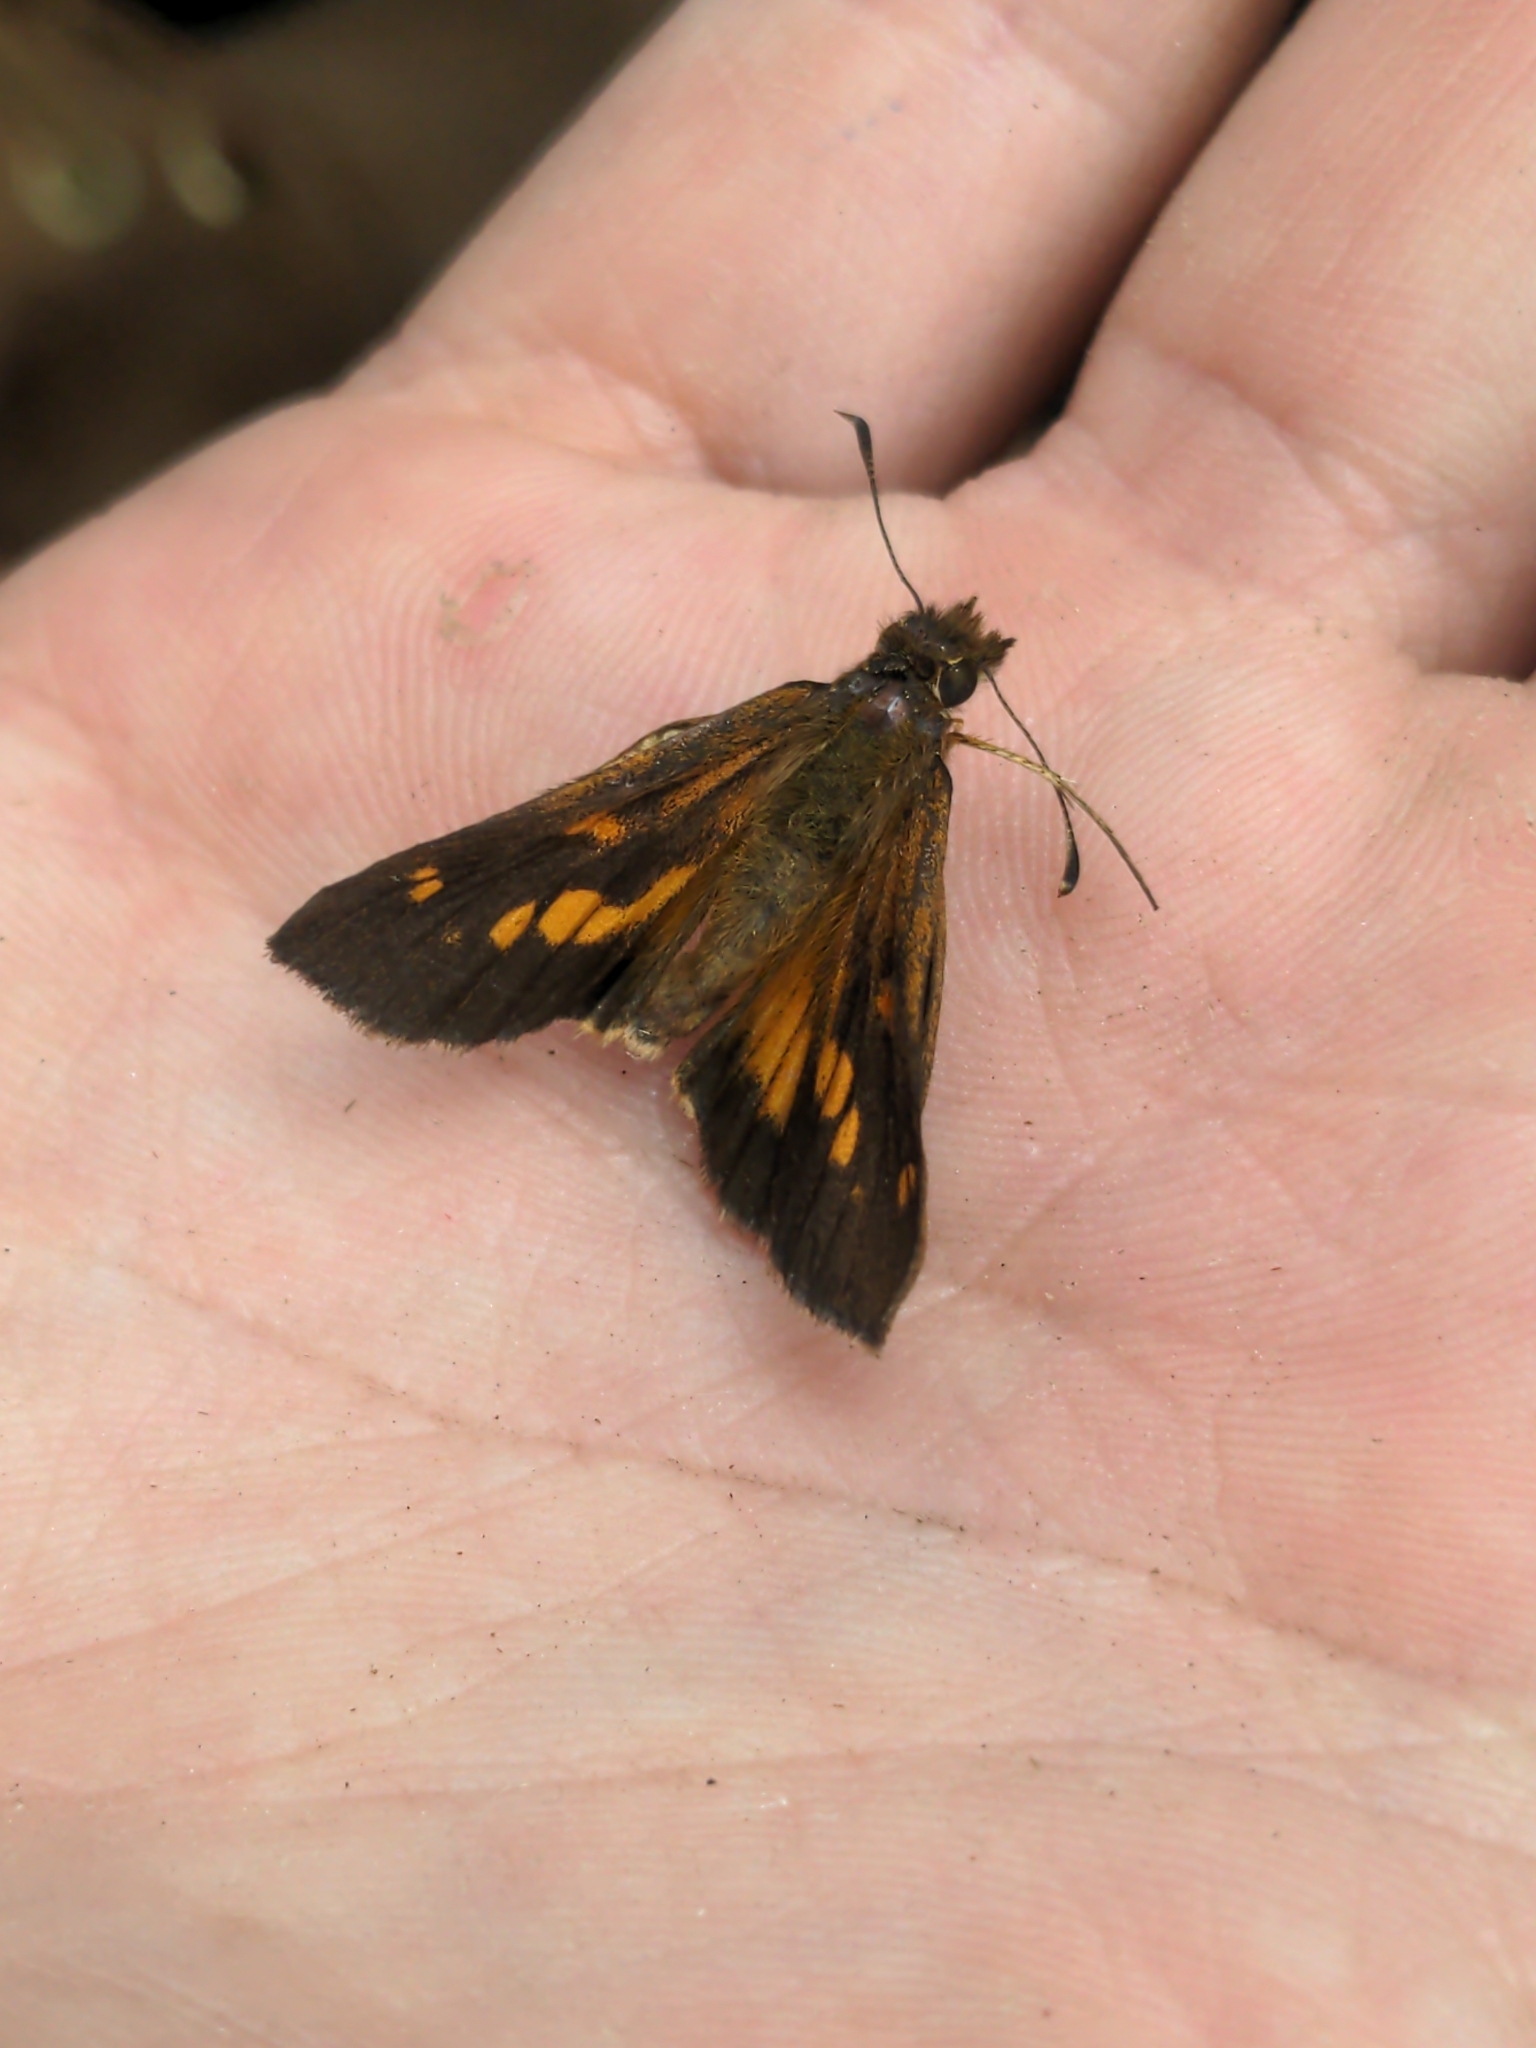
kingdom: Animalia
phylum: Arthropoda
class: Insecta
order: Lepidoptera
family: Hesperiidae
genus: Poanes
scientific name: Poanes viator
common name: Broad-winged skipper
